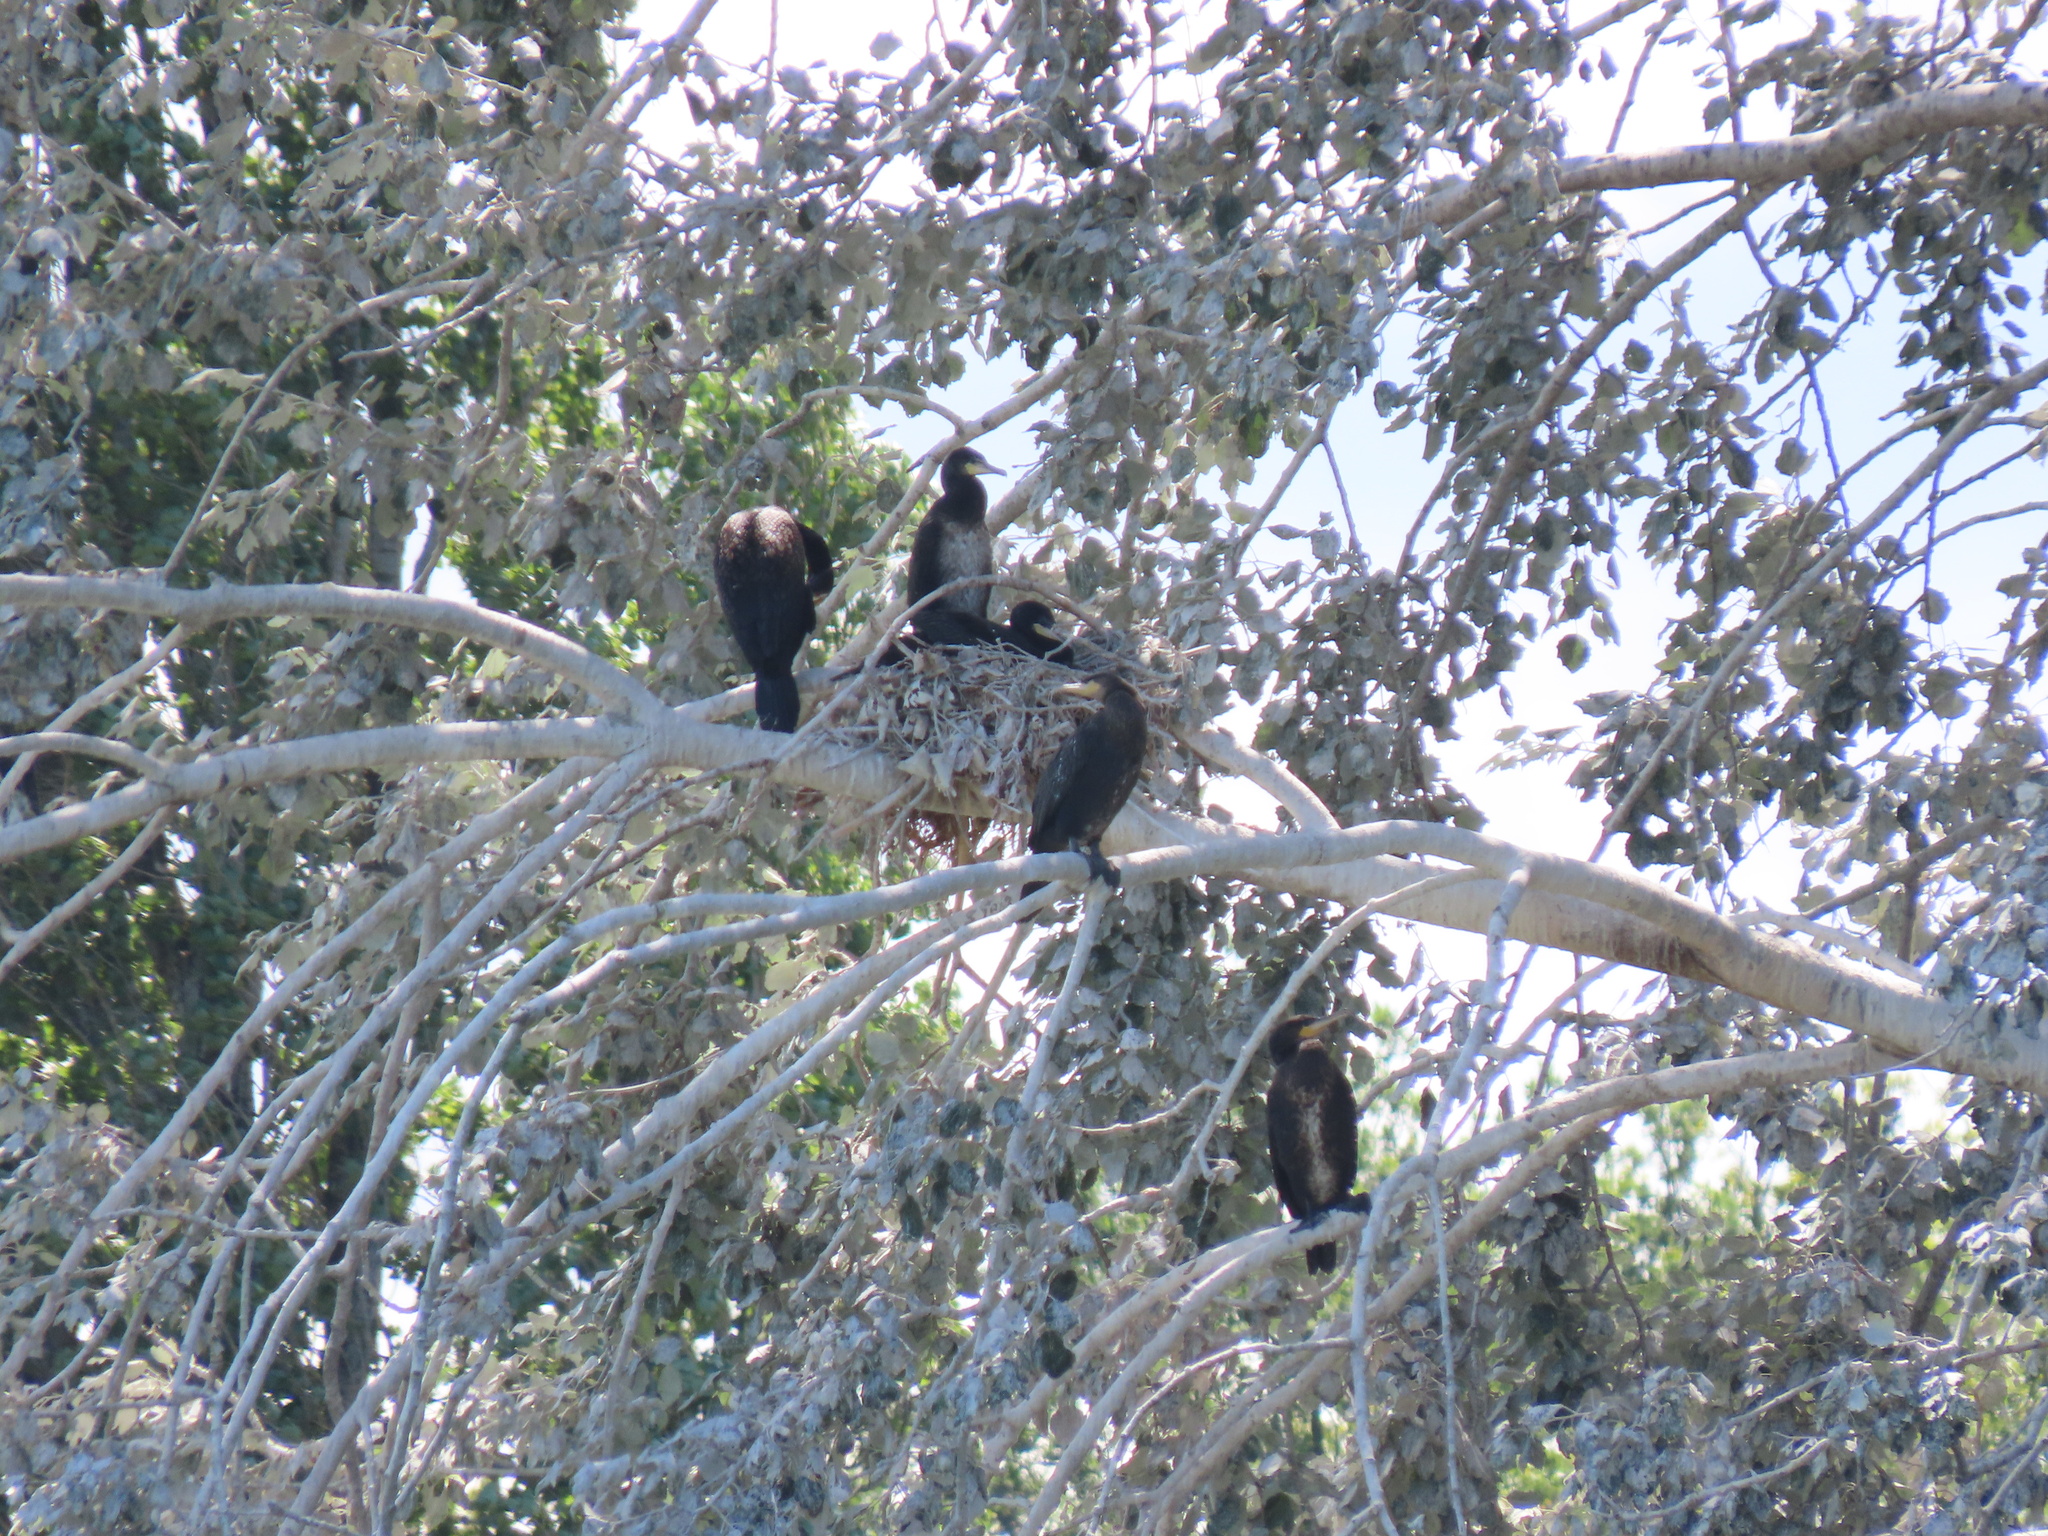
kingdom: Animalia
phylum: Chordata
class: Aves
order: Suliformes
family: Phalacrocoracidae
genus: Phalacrocorax
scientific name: Phalacrocorax carbo
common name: Great cormorant
